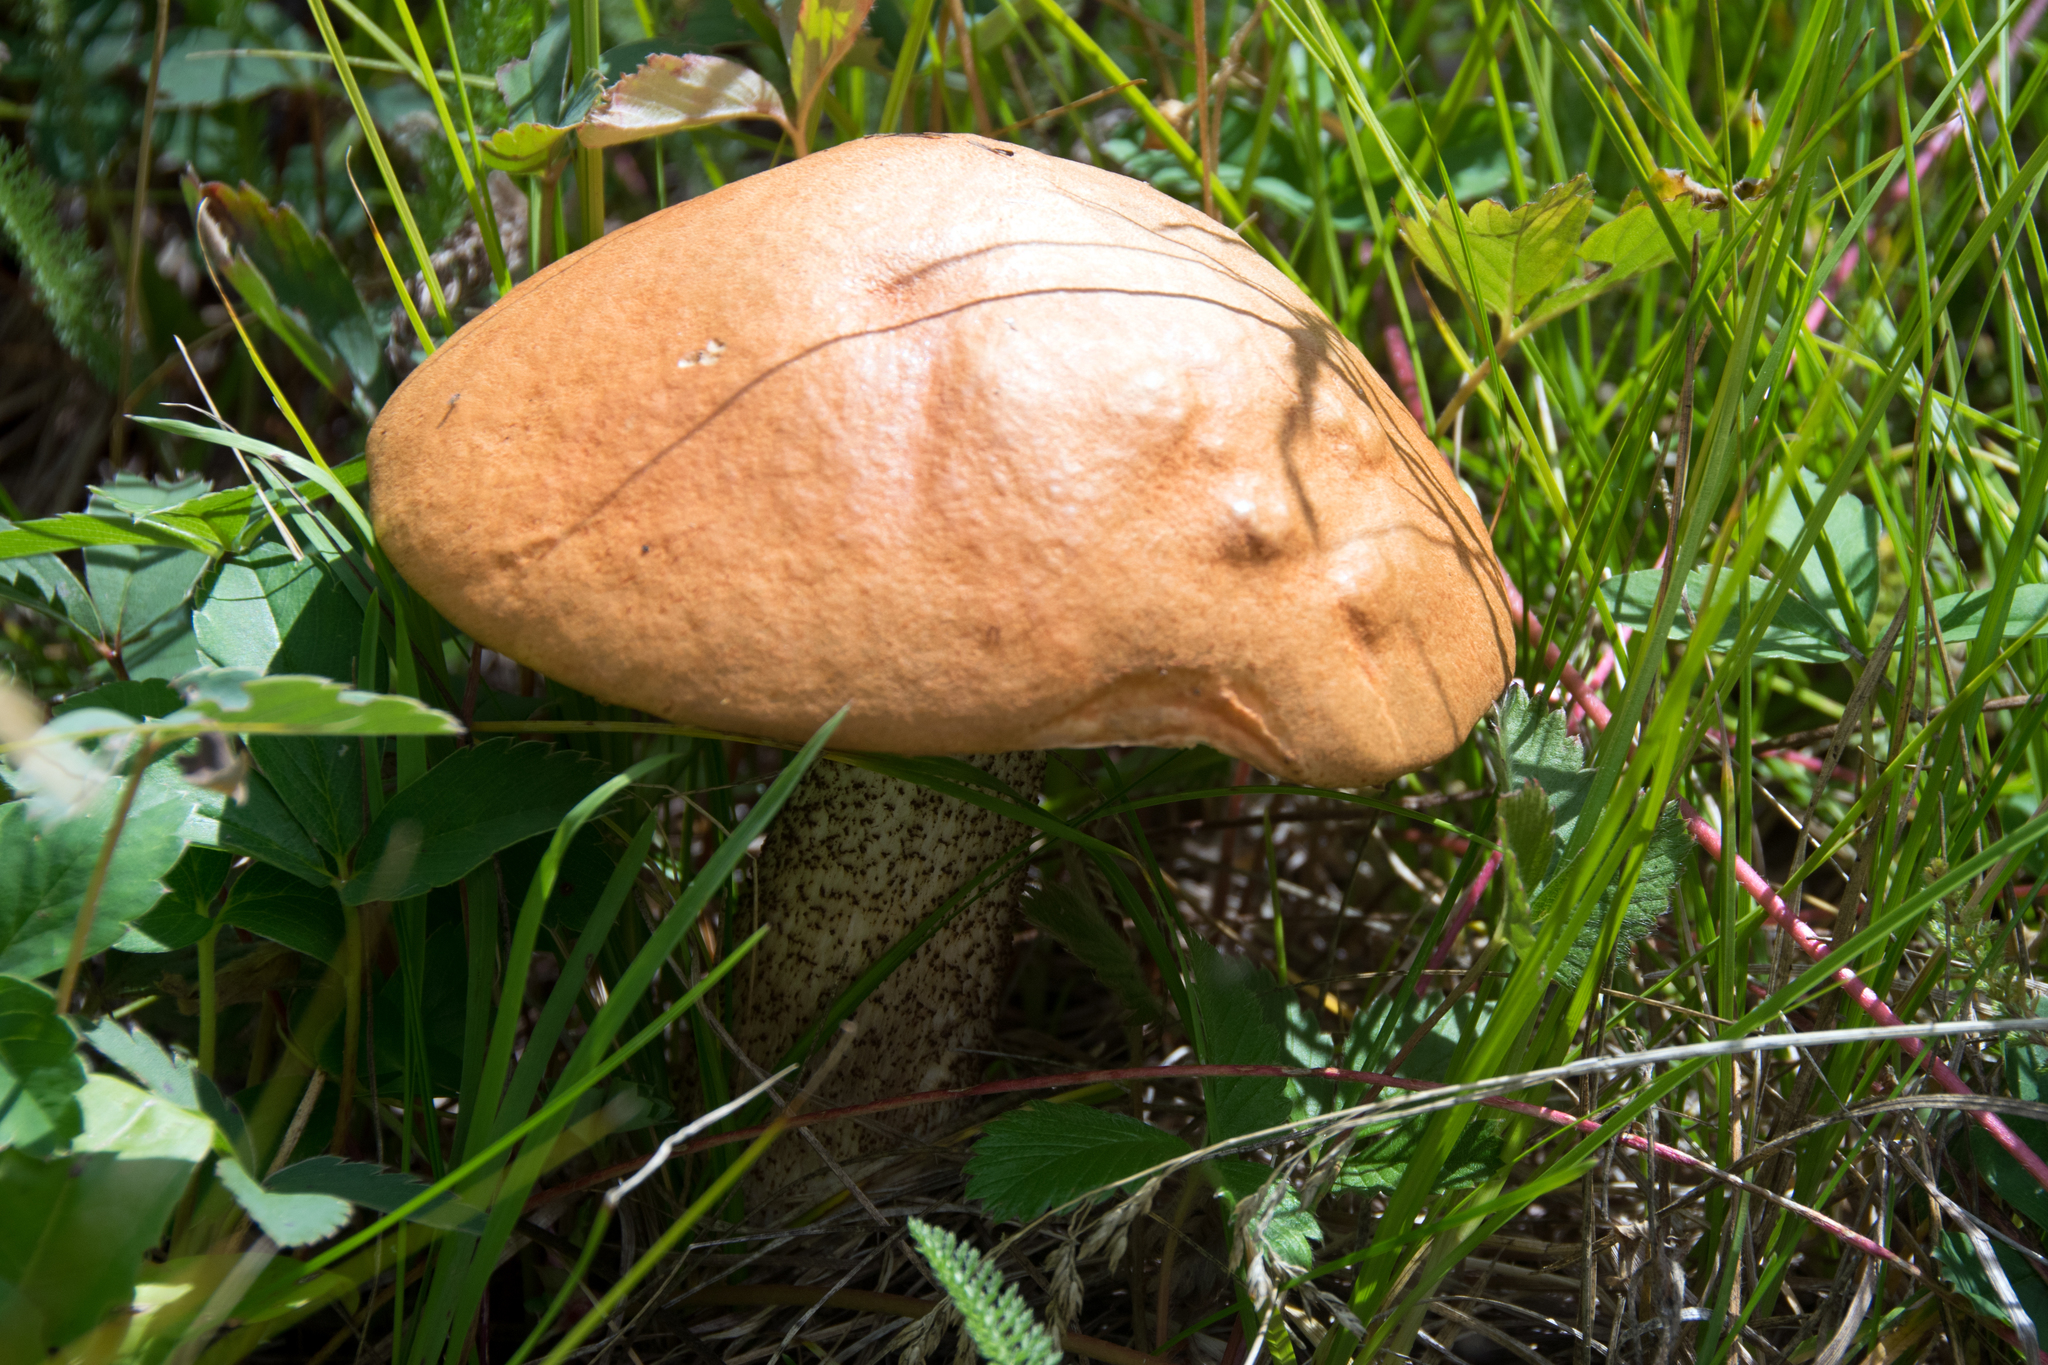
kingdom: Fungi
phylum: Basidiomycota
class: Agaricomycetes
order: Boletales
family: Boletaceae
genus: Leccinum
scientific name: Leccinum insigne
